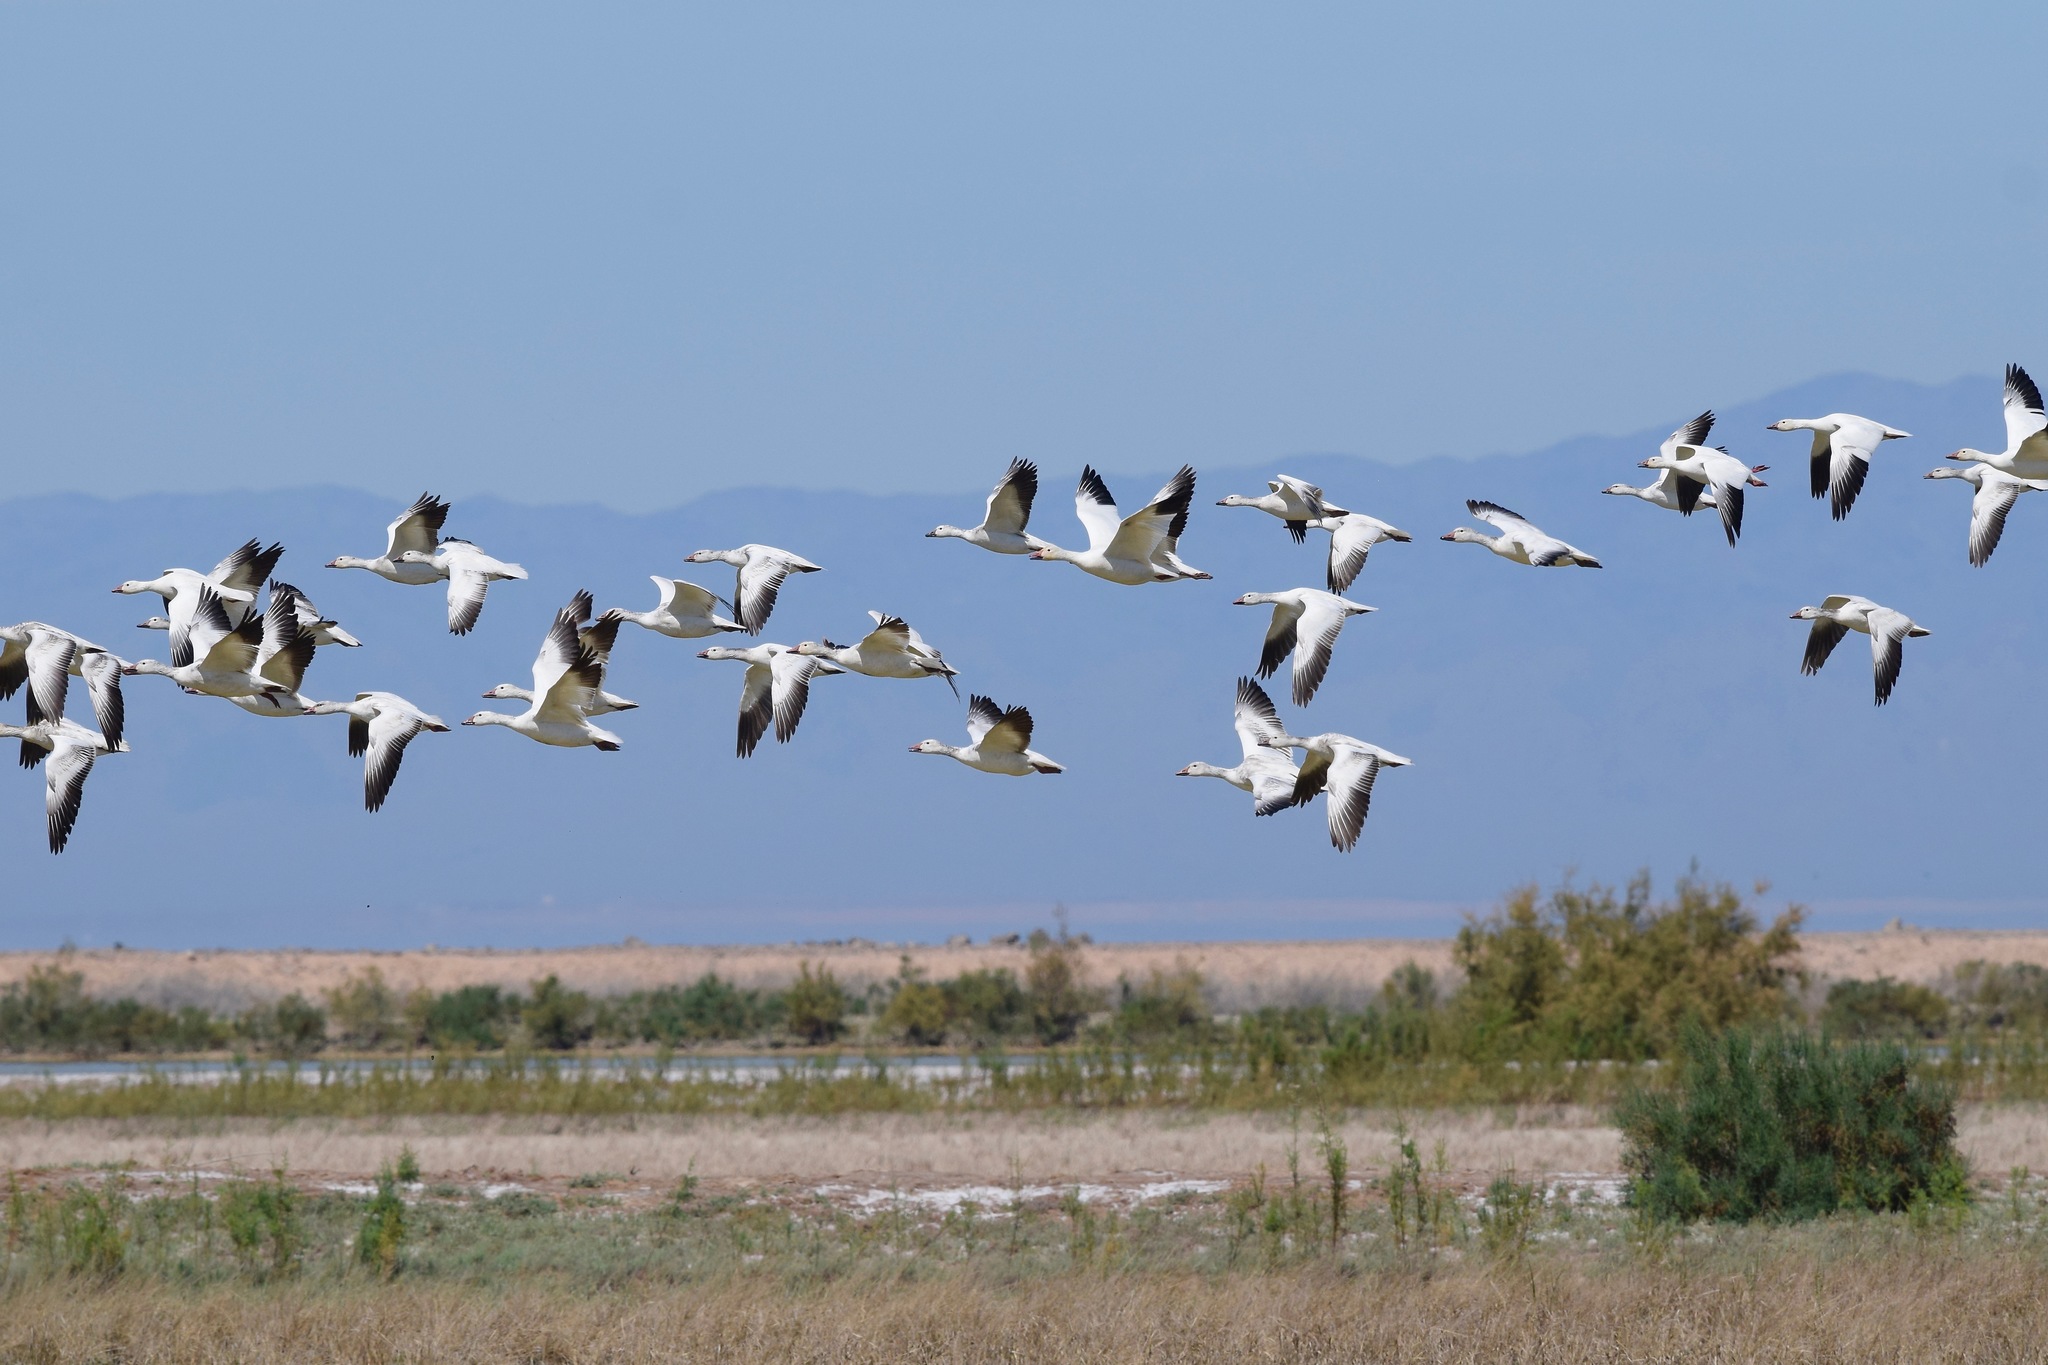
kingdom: Animalia
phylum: Chordata
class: Aves
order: Anseriformes
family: Anatidae
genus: Anser
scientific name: Anser caerulescens
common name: Snow goose
